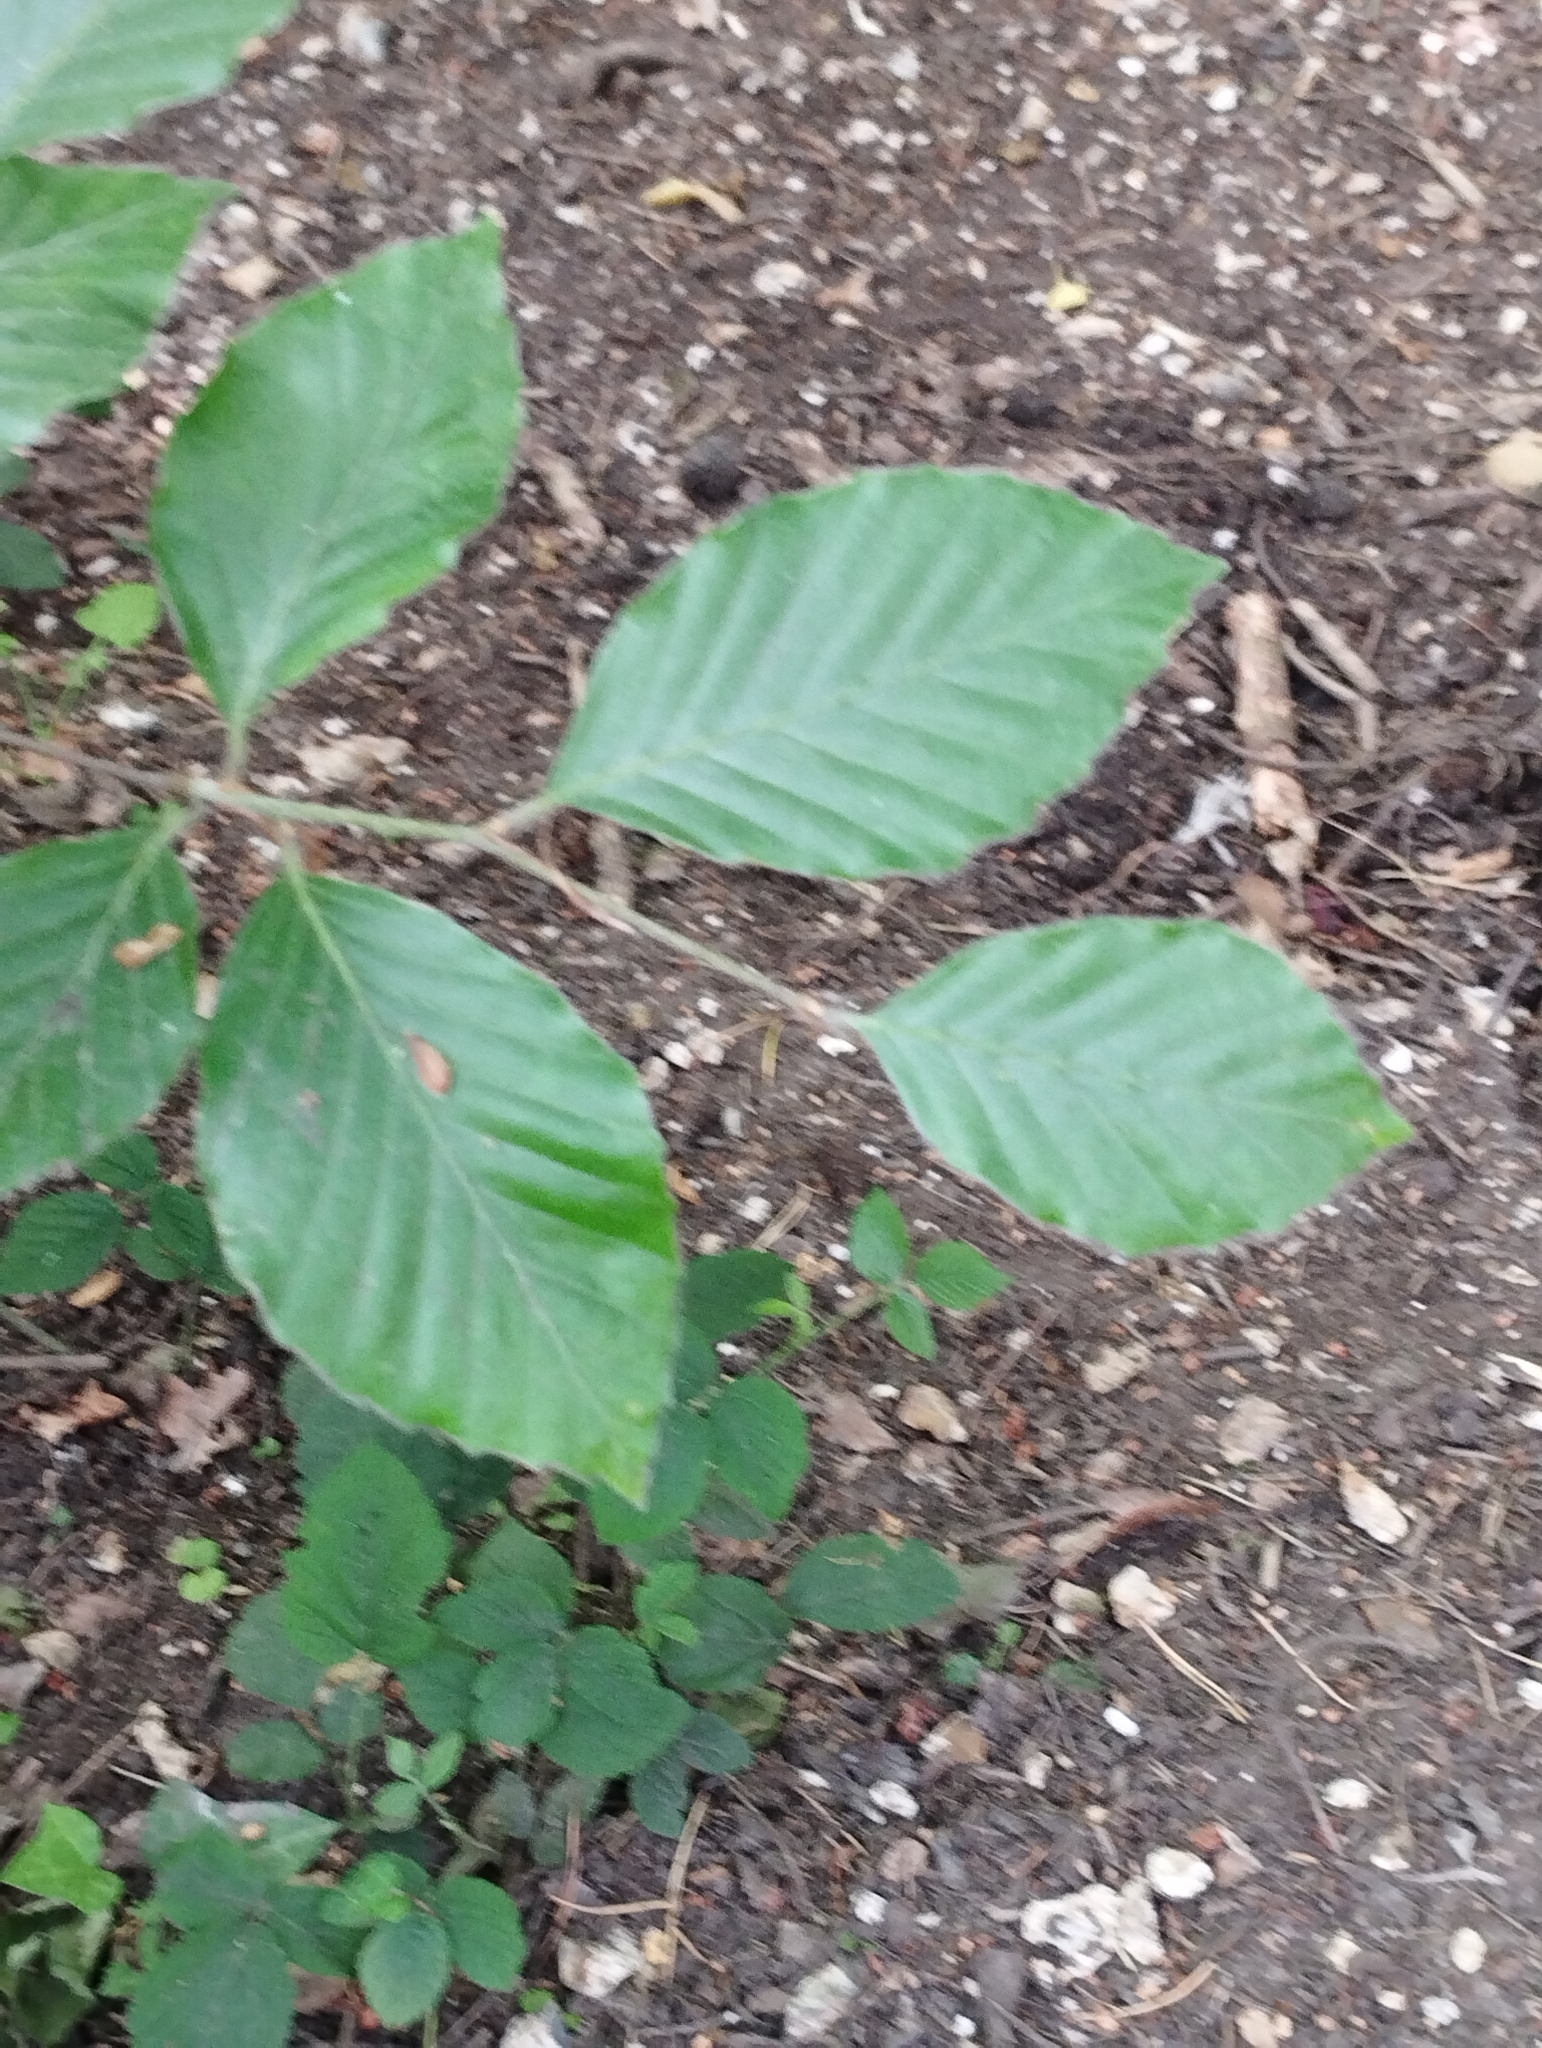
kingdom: Plantae
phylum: Tracheophyta
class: Magnoliopsida
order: Fagales
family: Fagaceae
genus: Fagus
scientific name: Fagus sylvatica
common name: Beech
